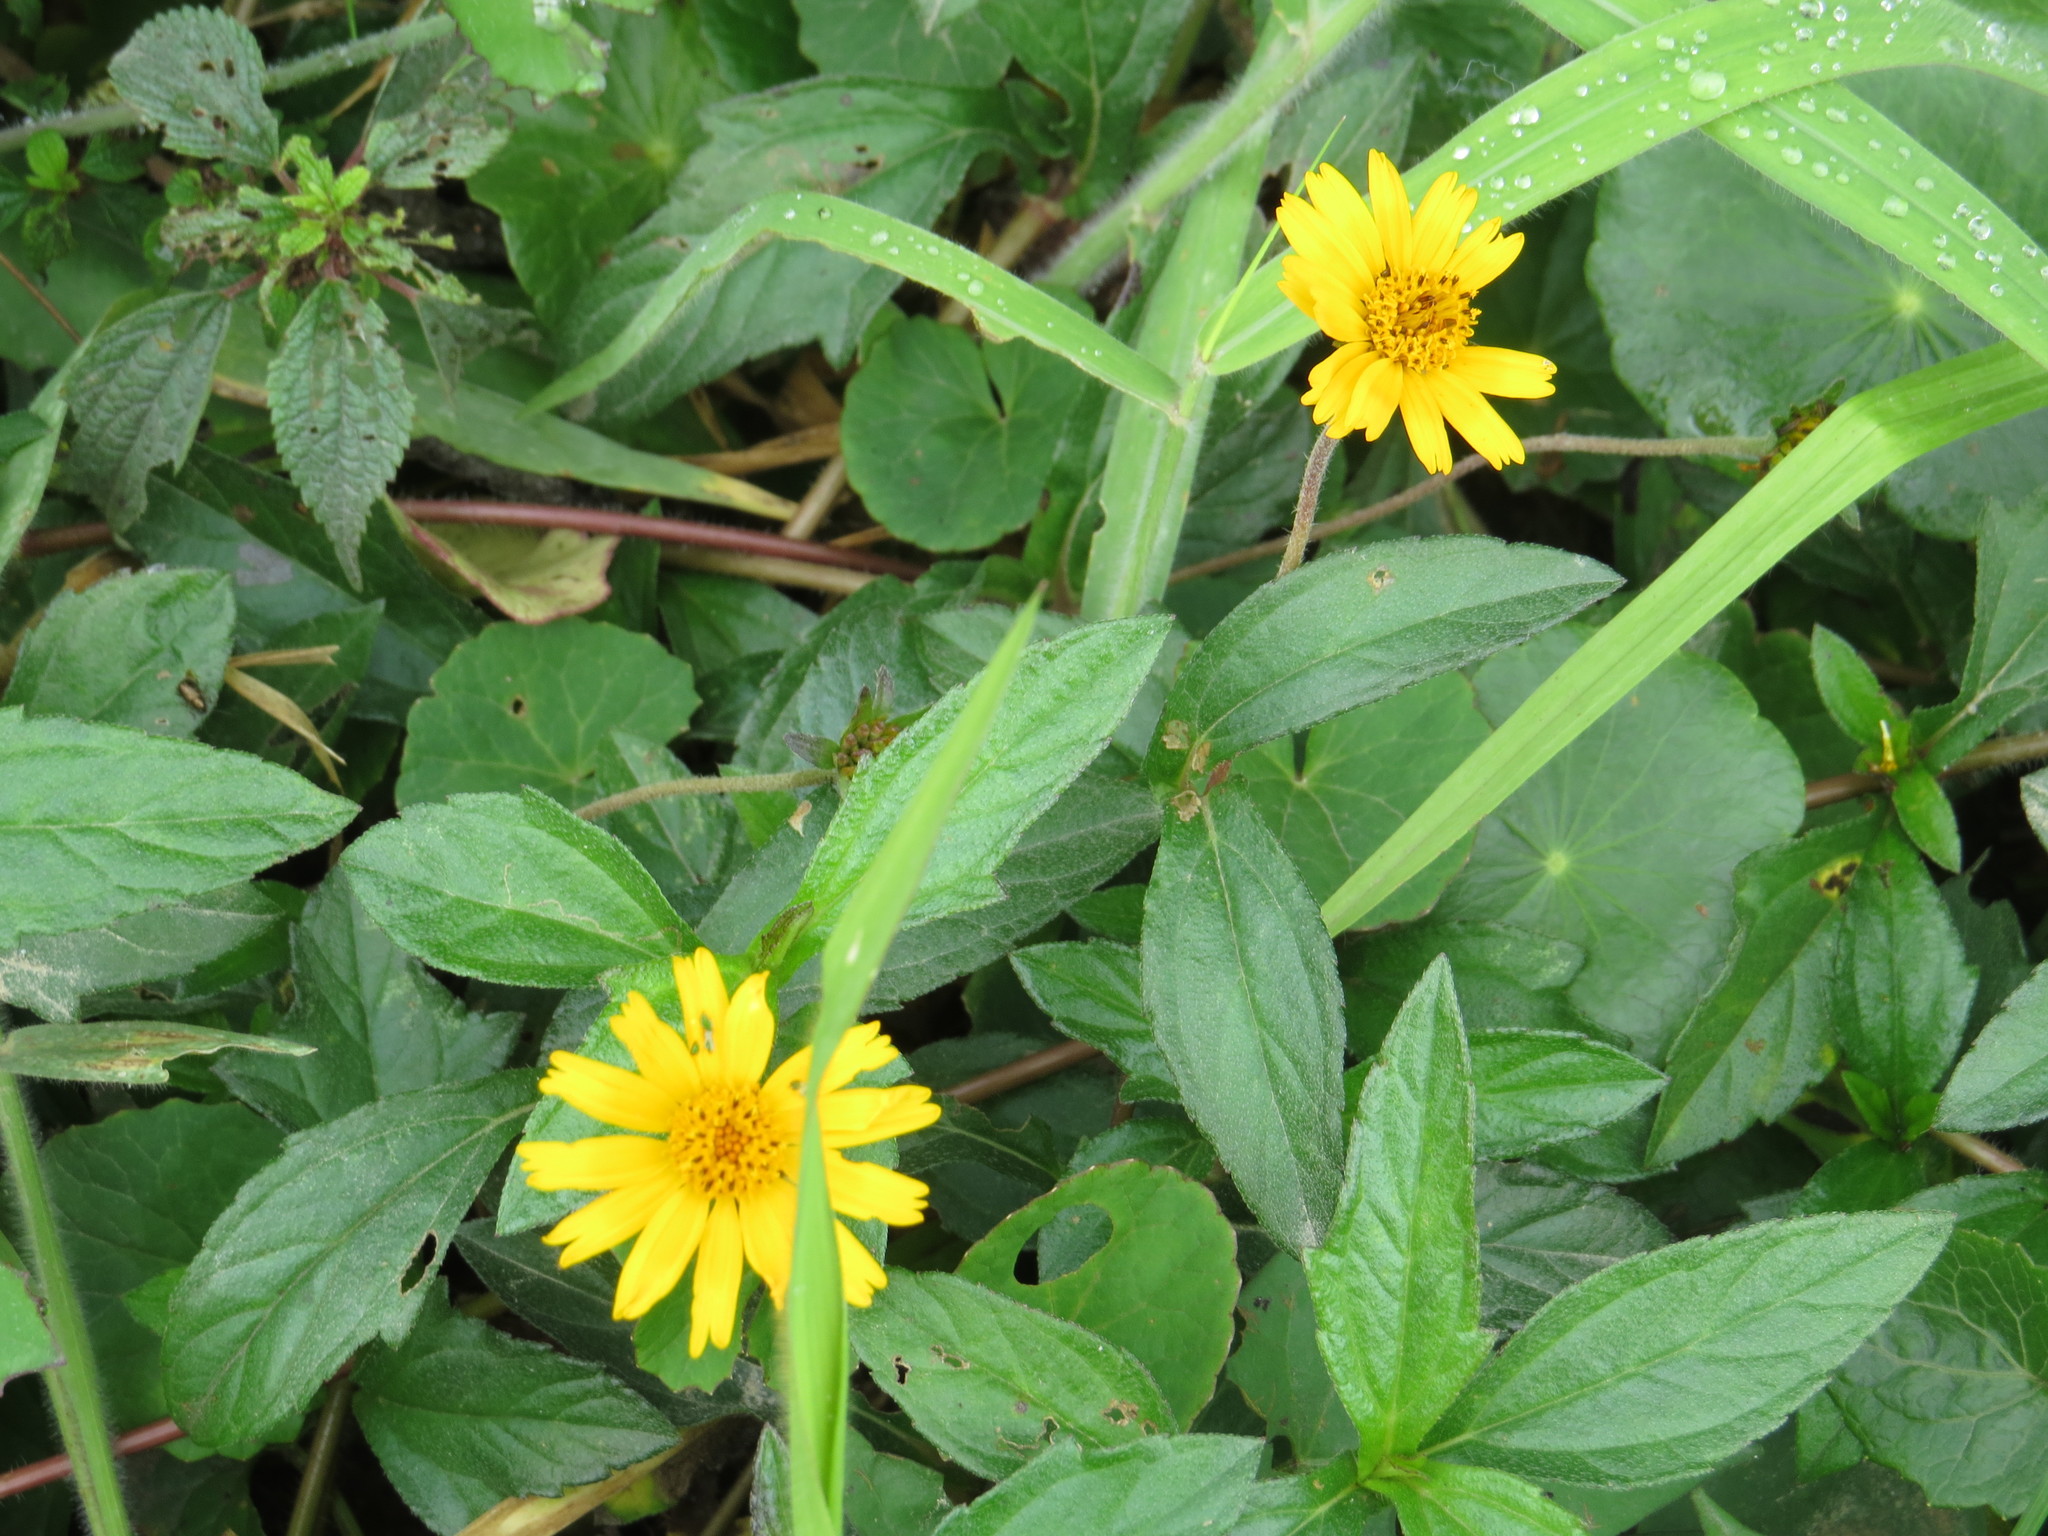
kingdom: Plantae
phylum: Tracheophyta
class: Magnoliopsida
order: Asterales
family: Asteraceae
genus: Sphagneticola
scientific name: Sphagneticola trilobata
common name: Bay biscayne creeping-oxeye
